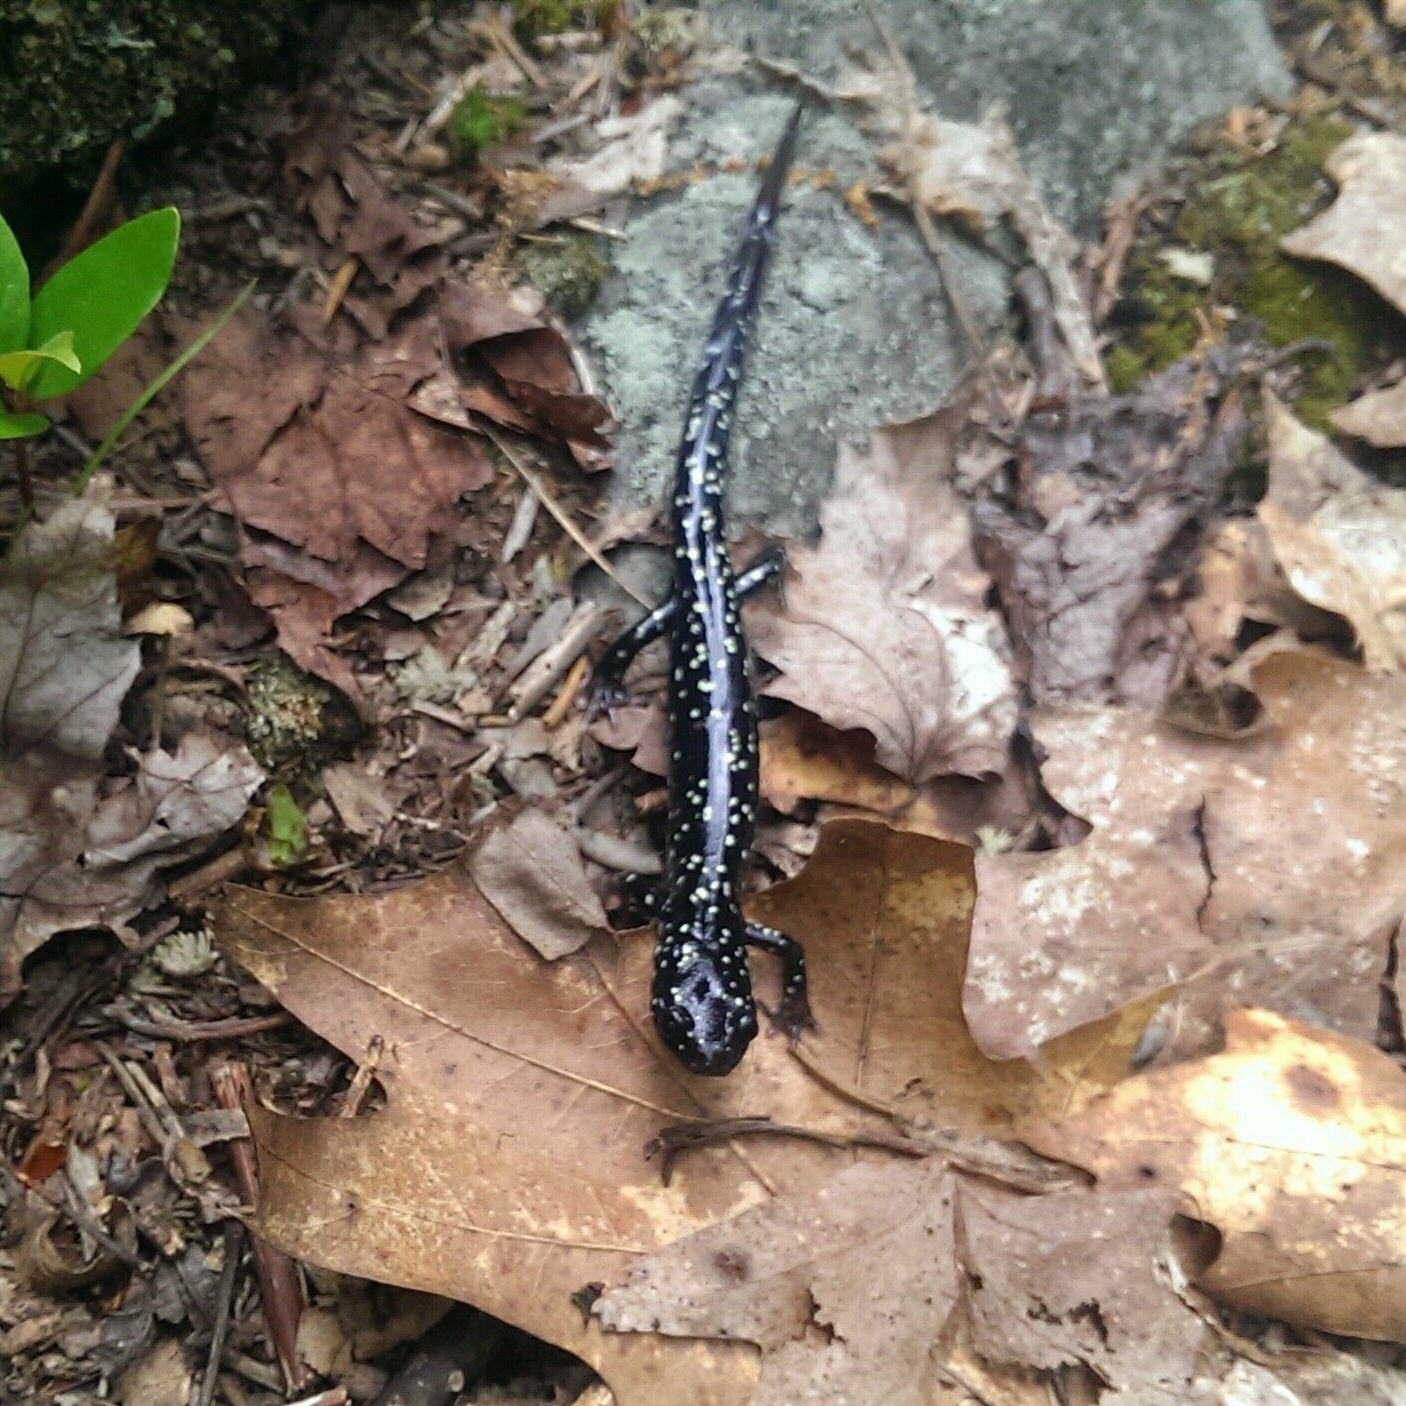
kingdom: Animalia
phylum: Chordata
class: Amphibia
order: Caudata
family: Plethodontidae
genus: Plethodon
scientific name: Plethodon glutinosus
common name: Northern slimy salamander
